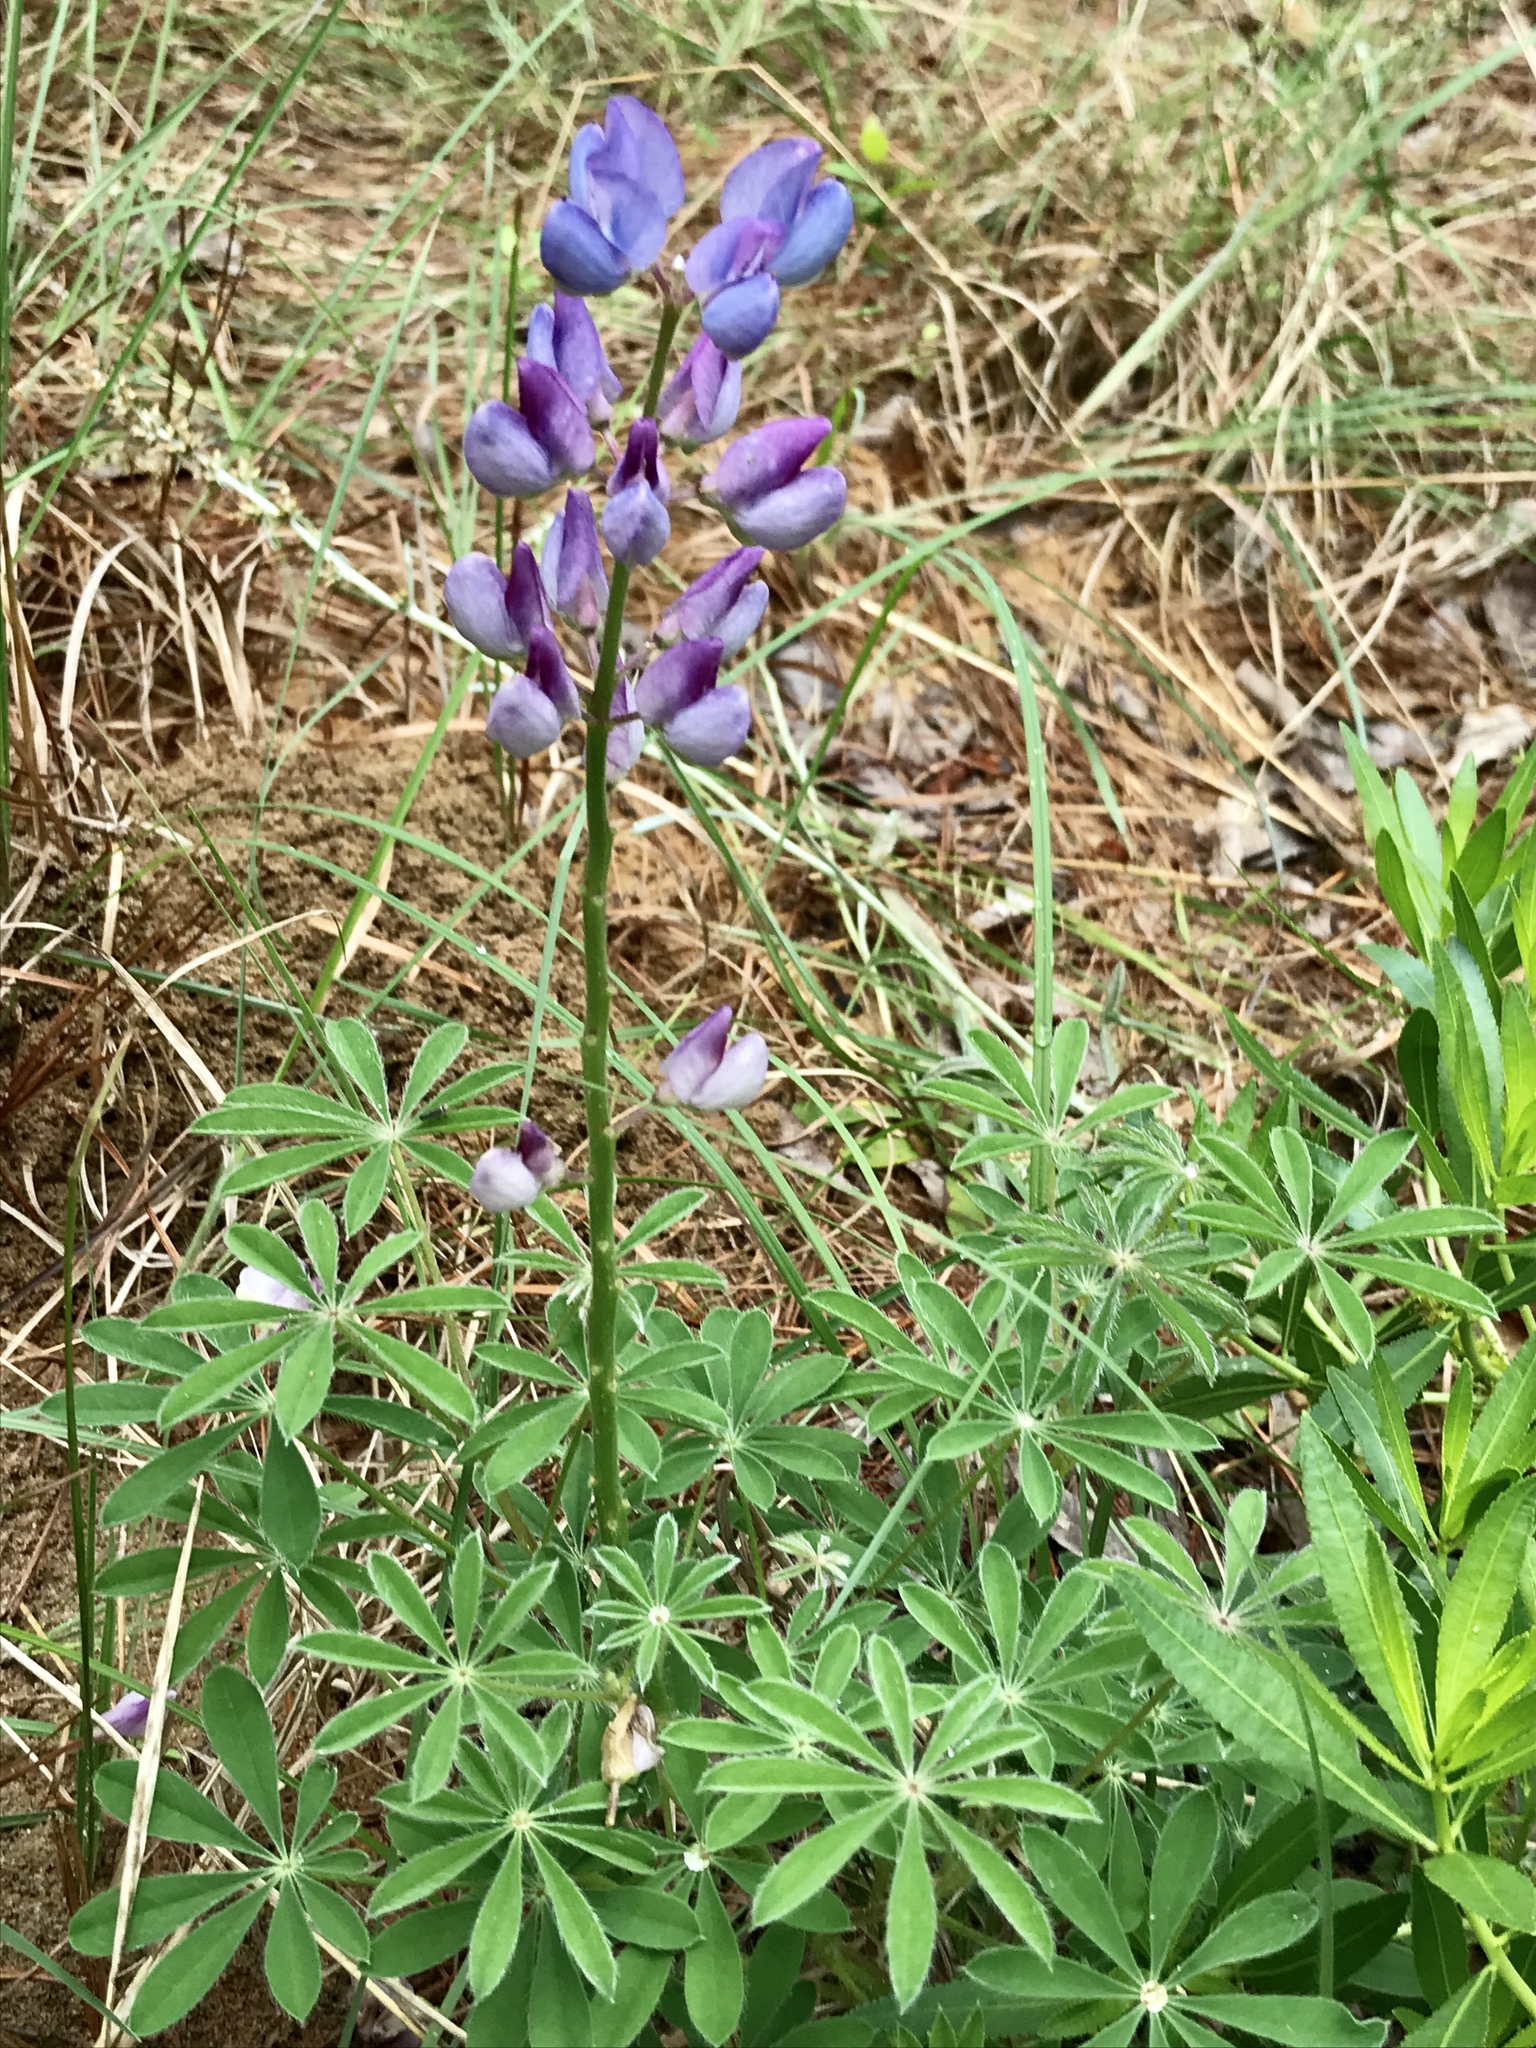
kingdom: Plantae
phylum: Tracheophyta
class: Magnoliopsida
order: Fabales
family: Fabaceae
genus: Lupinus
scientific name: Lupinus perennis
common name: Sundial lupine
